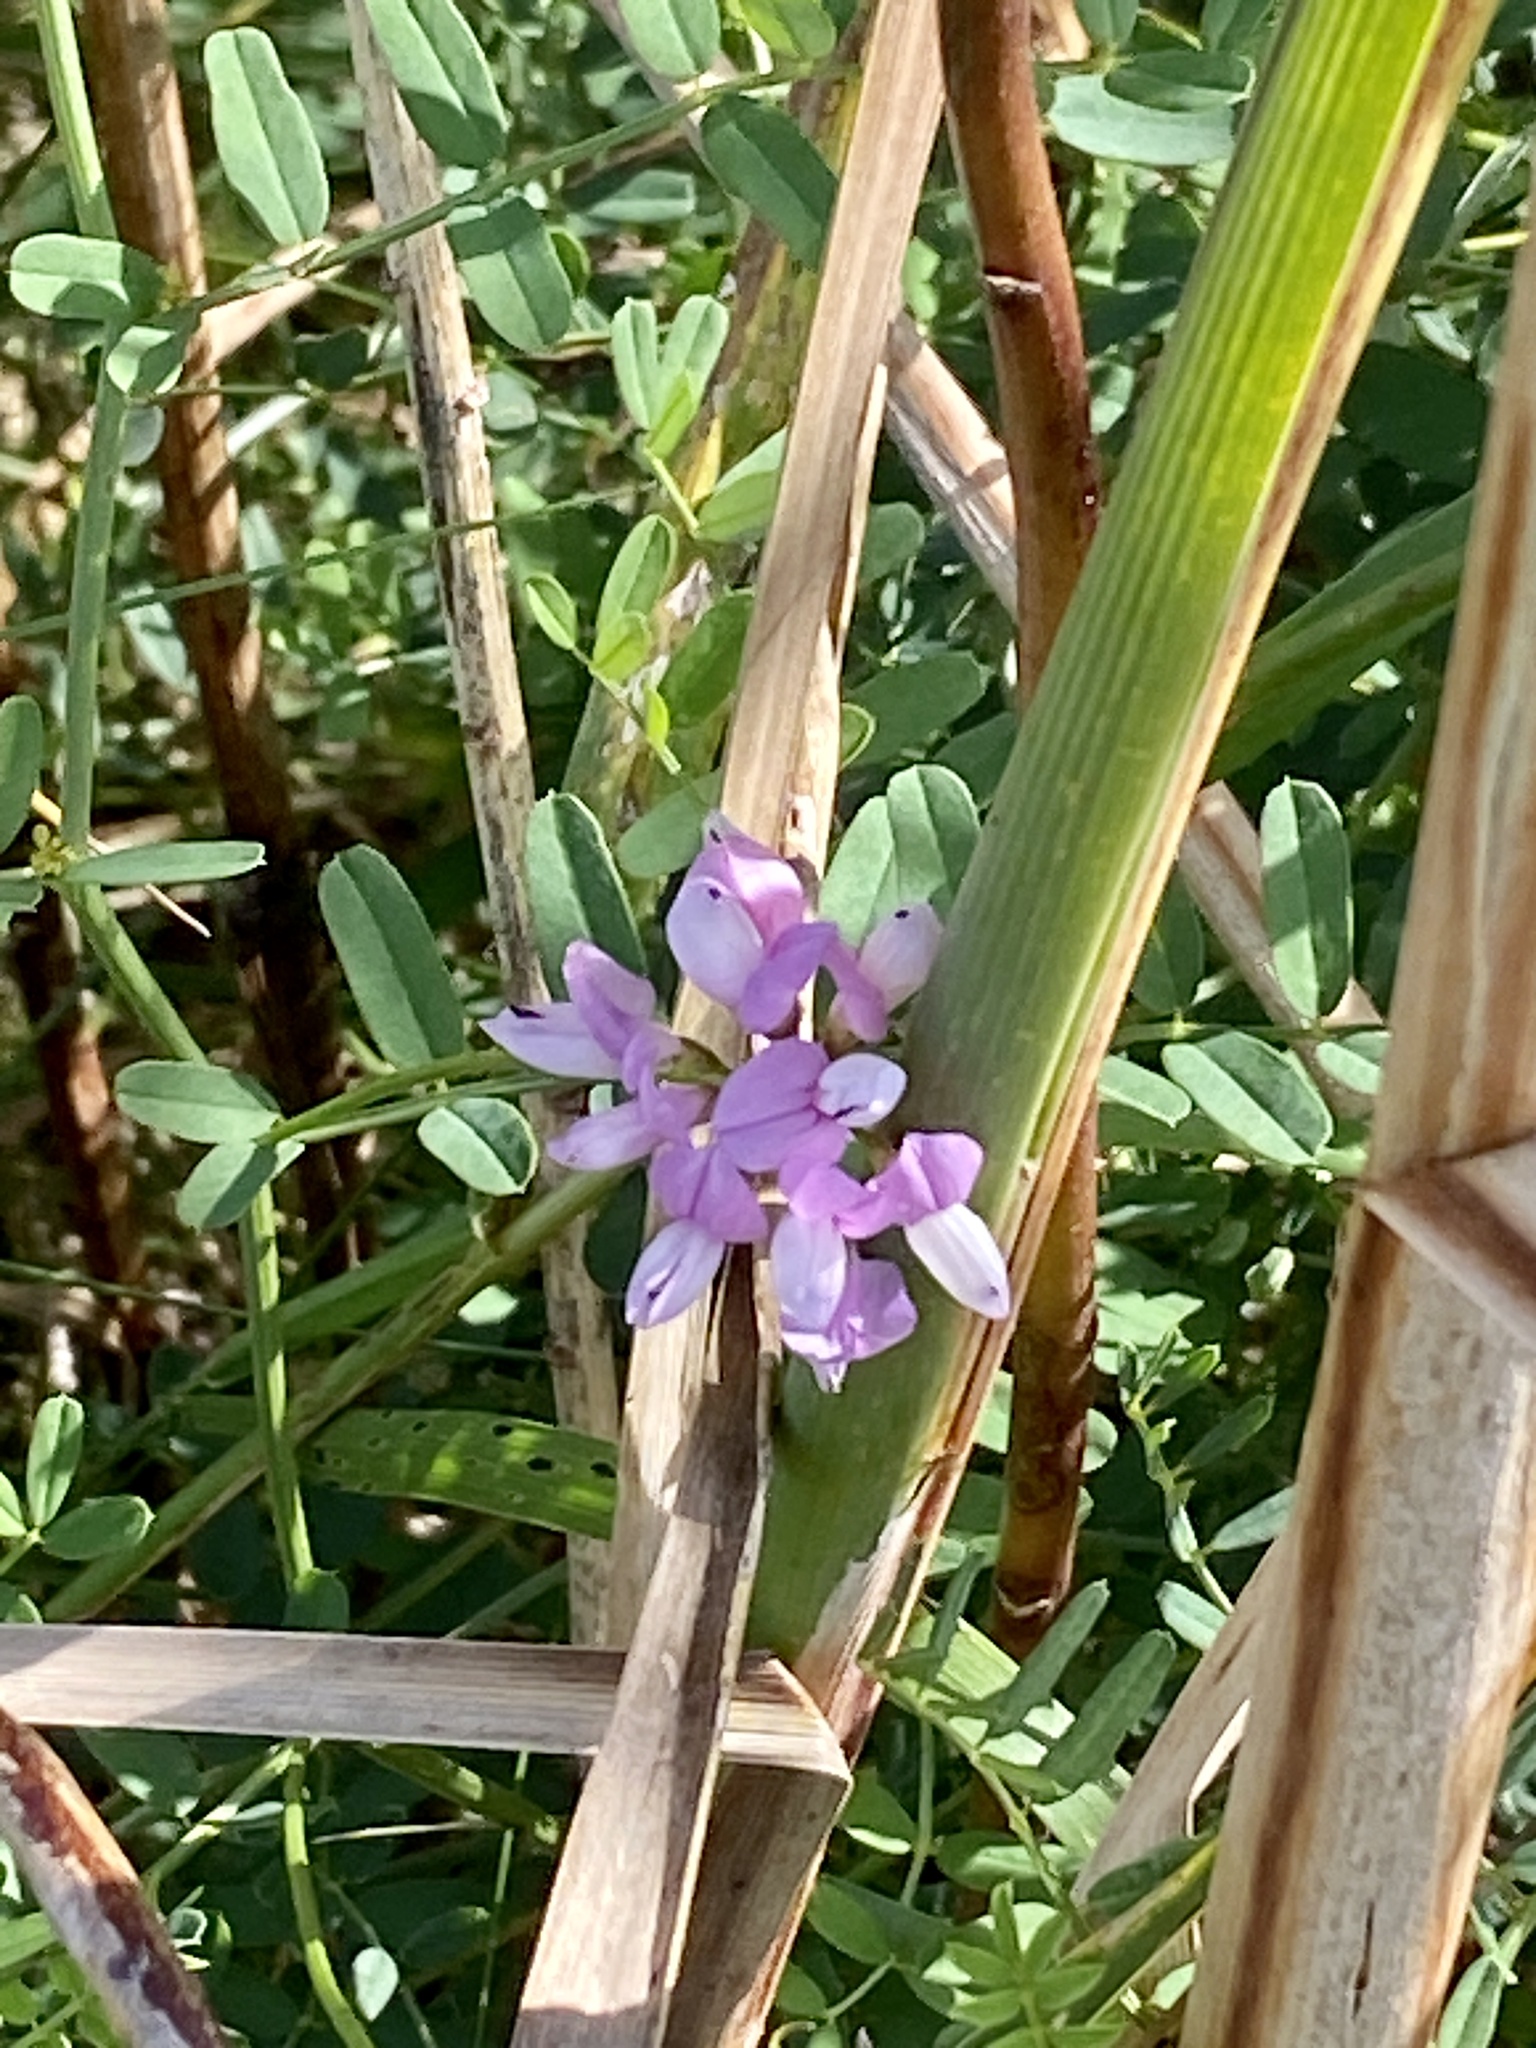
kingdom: Plantae
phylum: Tracheophyta
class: Magnoliopsida
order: Fabales
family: Fabaceae
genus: Coronilla
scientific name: Coronilla varia
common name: Crownvetch
